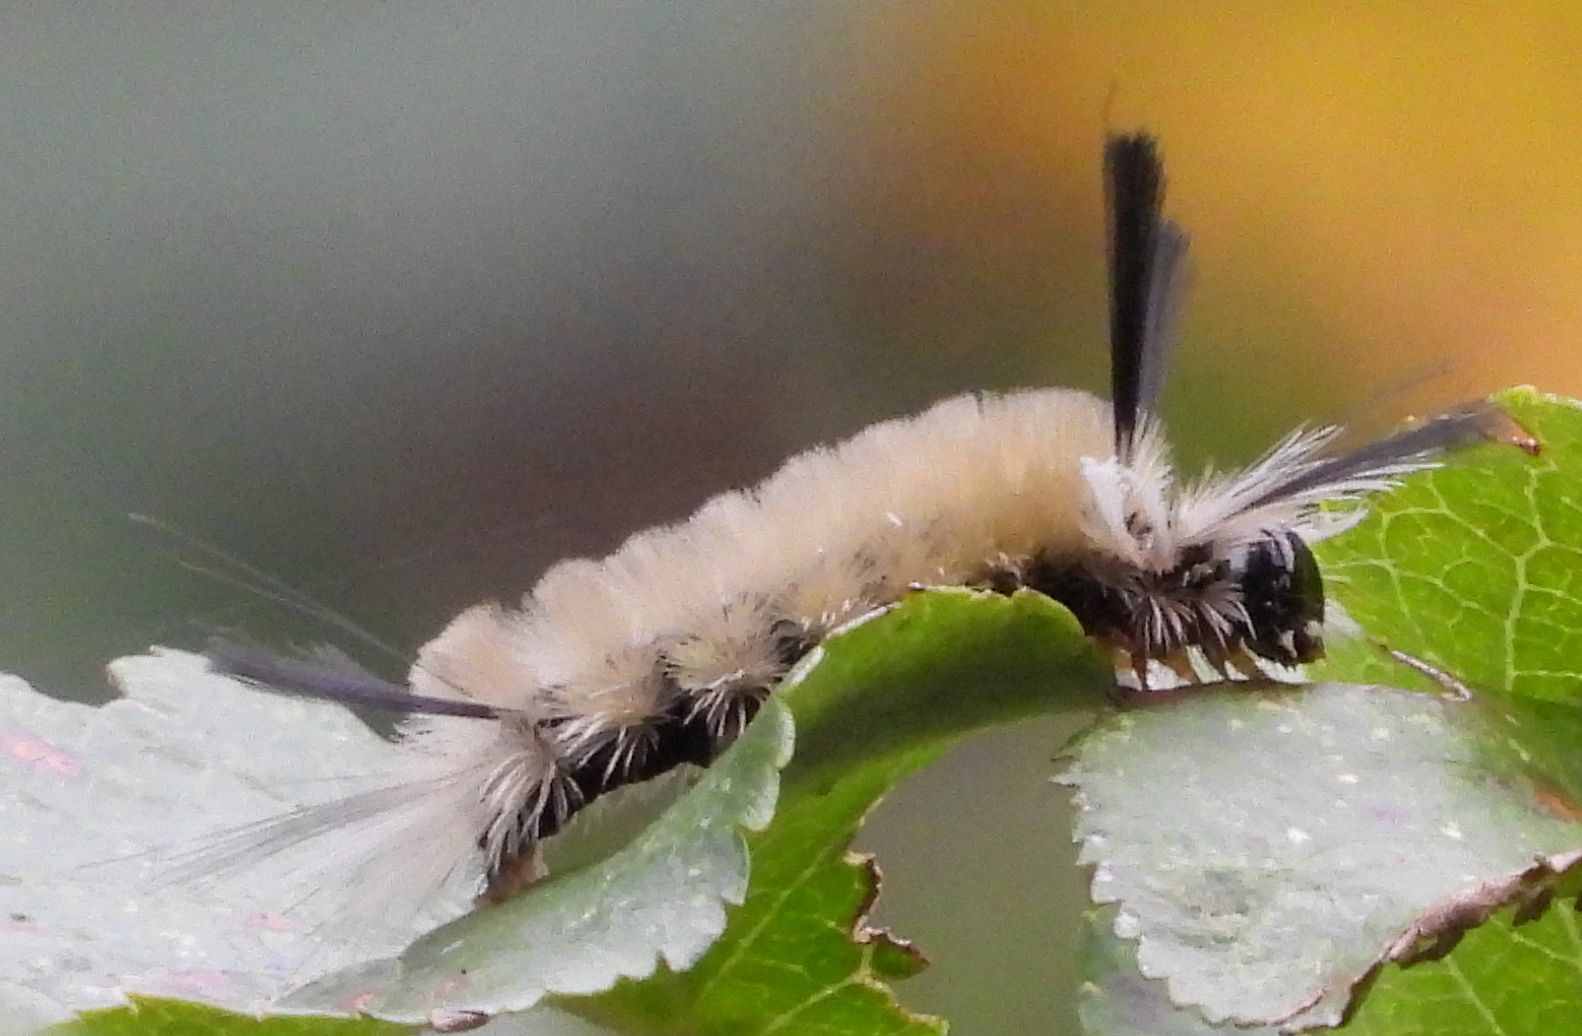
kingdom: Animalia
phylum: Arthropoda
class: Insecta
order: Lepidoptera
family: Erebidae
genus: Halysidota
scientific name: Halysidota tessellaris
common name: Banded tussock moth
